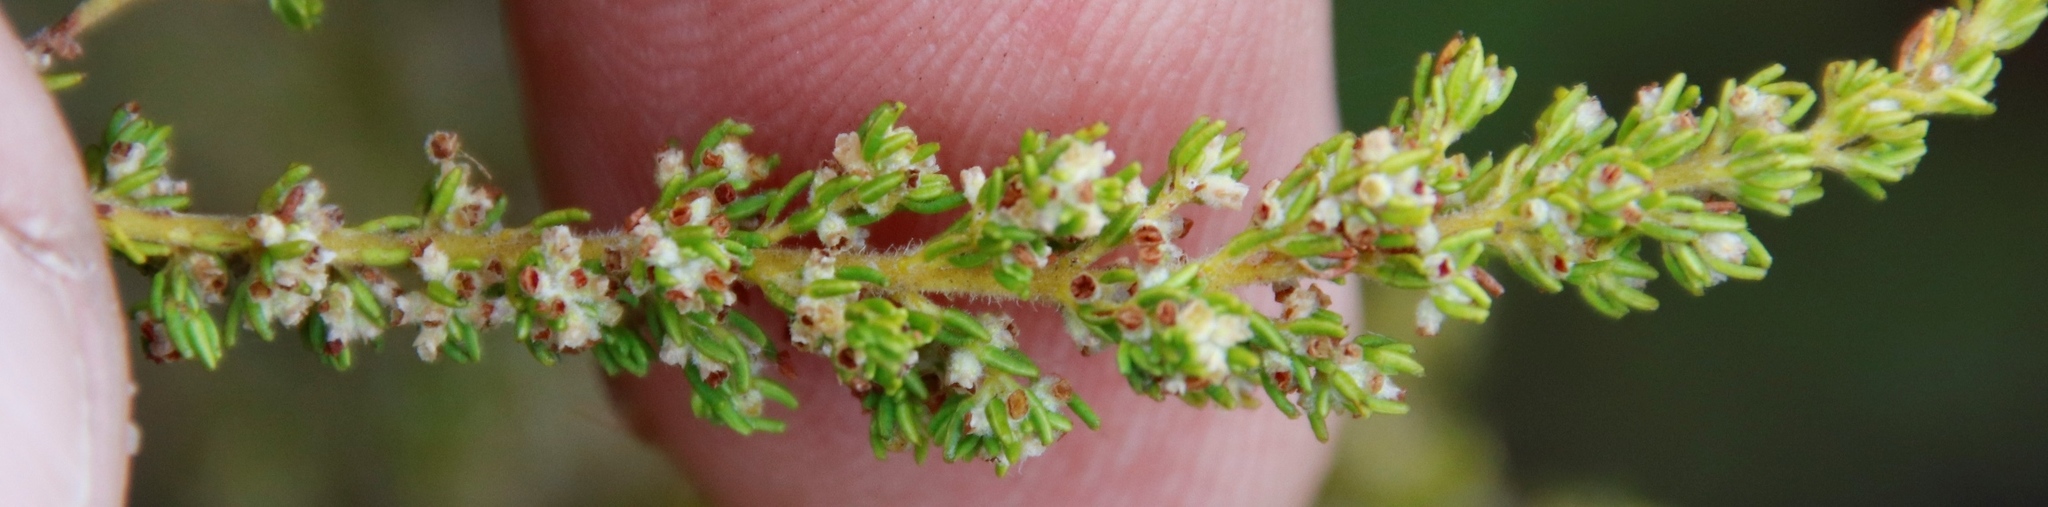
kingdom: Plantae
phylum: Tracheophyta
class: Magnoliopsida
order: Ericales
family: Ericaceae
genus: Erica
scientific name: Erica muscosa
